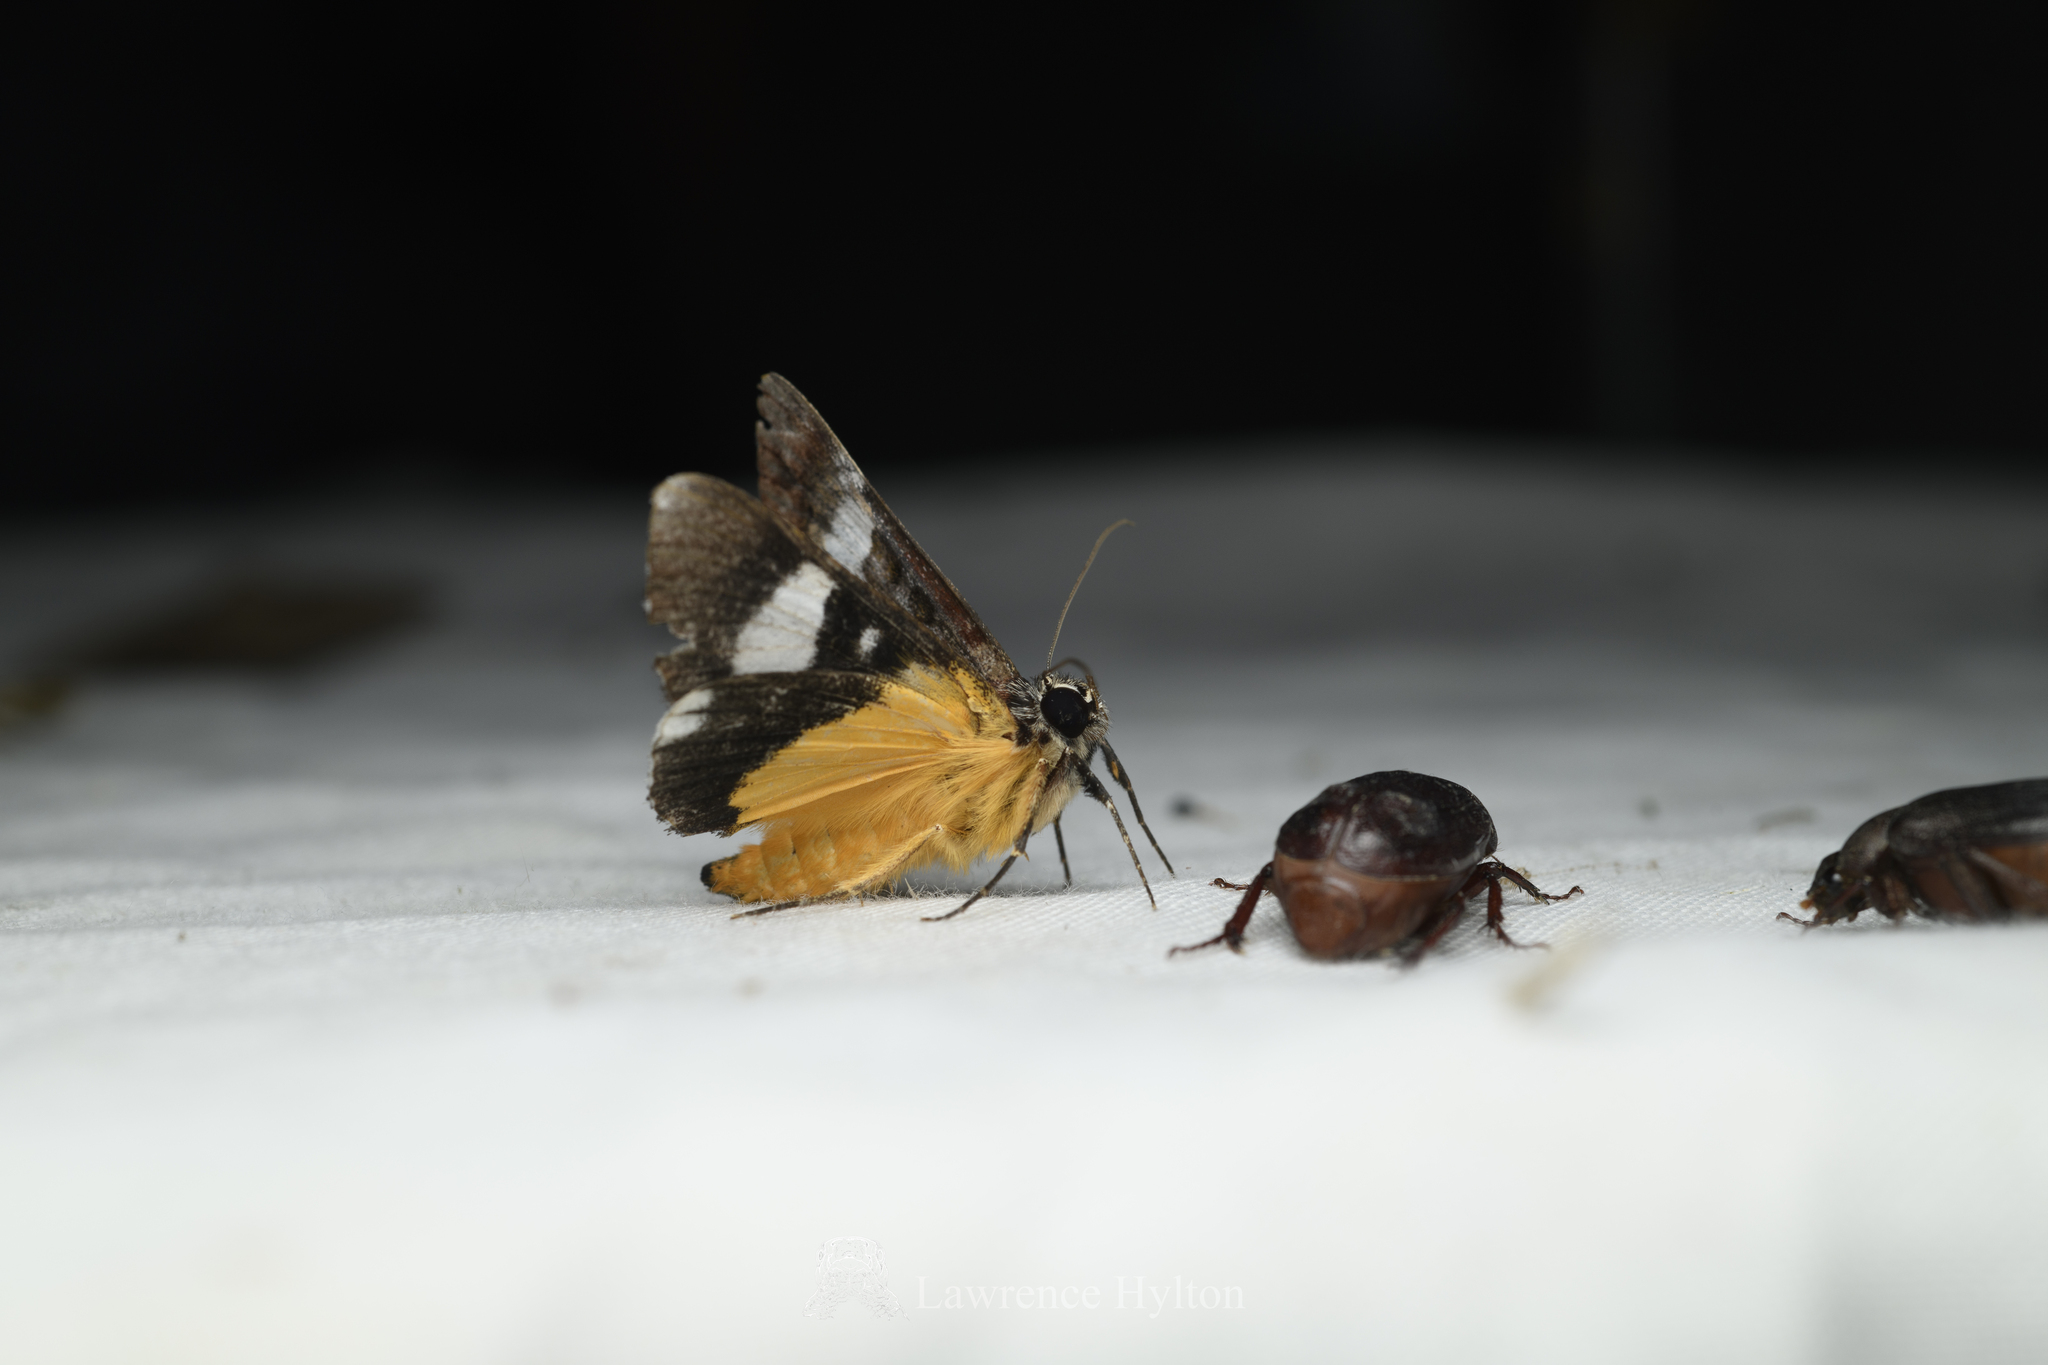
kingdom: Animalia
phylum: Arthropoda
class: Insecta
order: Lepidoptera
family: Noctuidae
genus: Sarbanissa
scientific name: Sarbanissa albifascia
